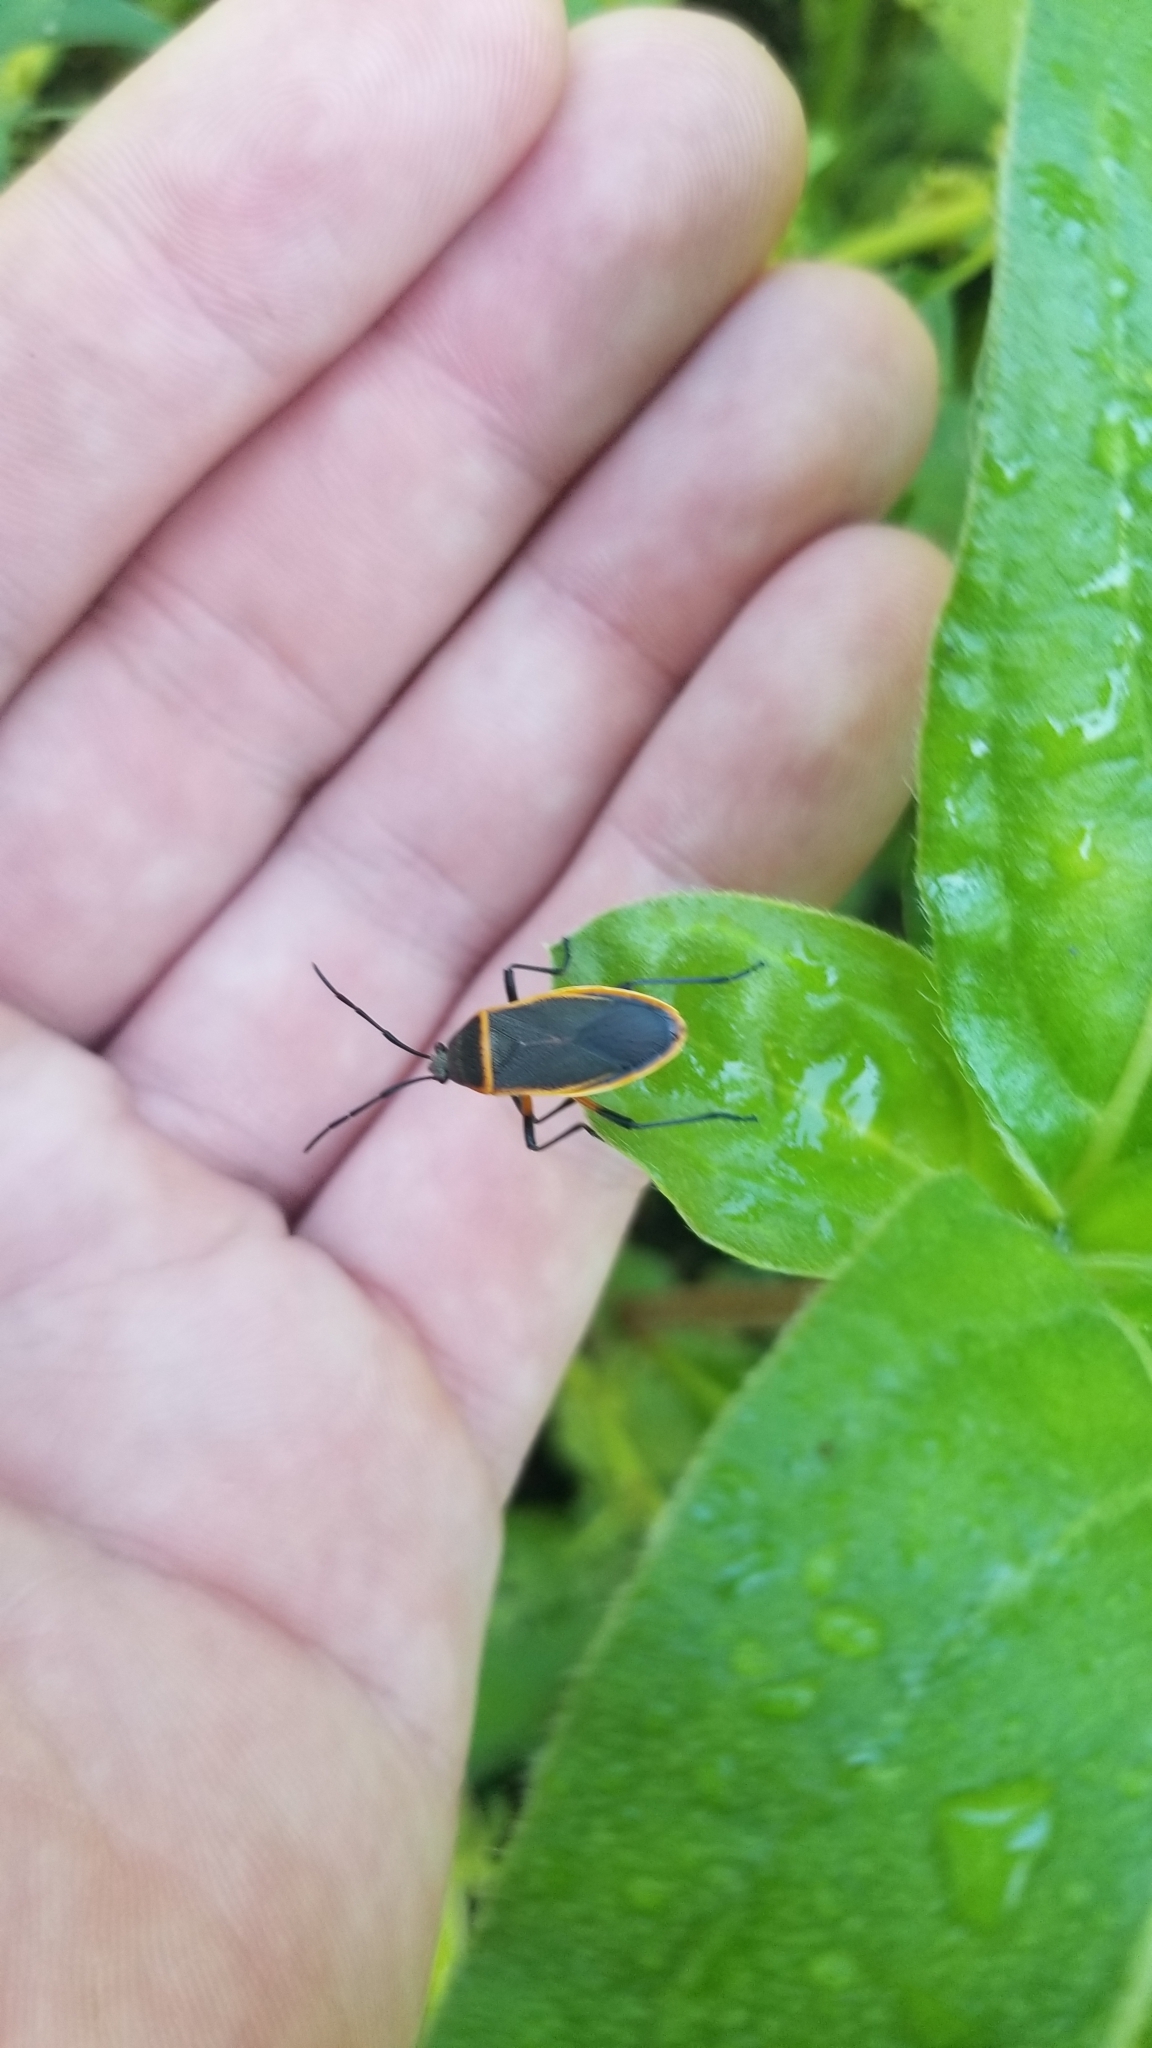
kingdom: Animalia
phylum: Arthropoda
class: Insecta
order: Hemiptera
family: Largidae
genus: Largus
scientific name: Largus succinctus
